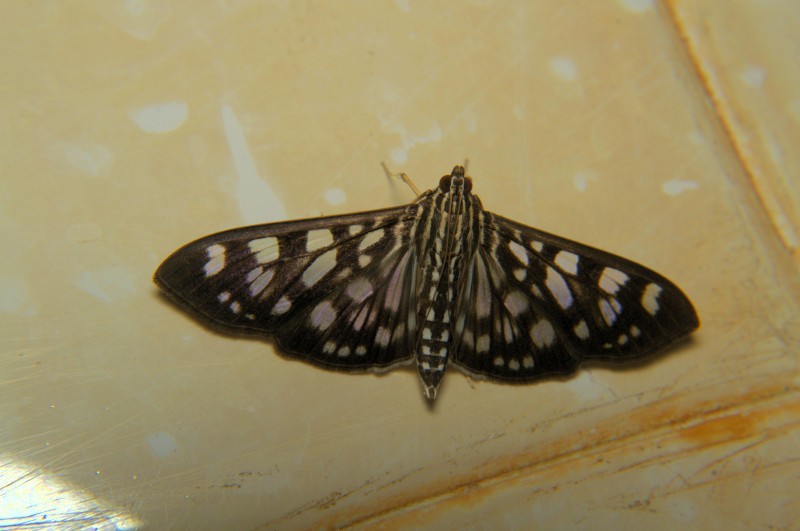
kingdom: Animalia
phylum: Arthropoda
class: Insecta
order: Lepidoptera
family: Crambidae
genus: Pygospila
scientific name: Pygospila tyres
